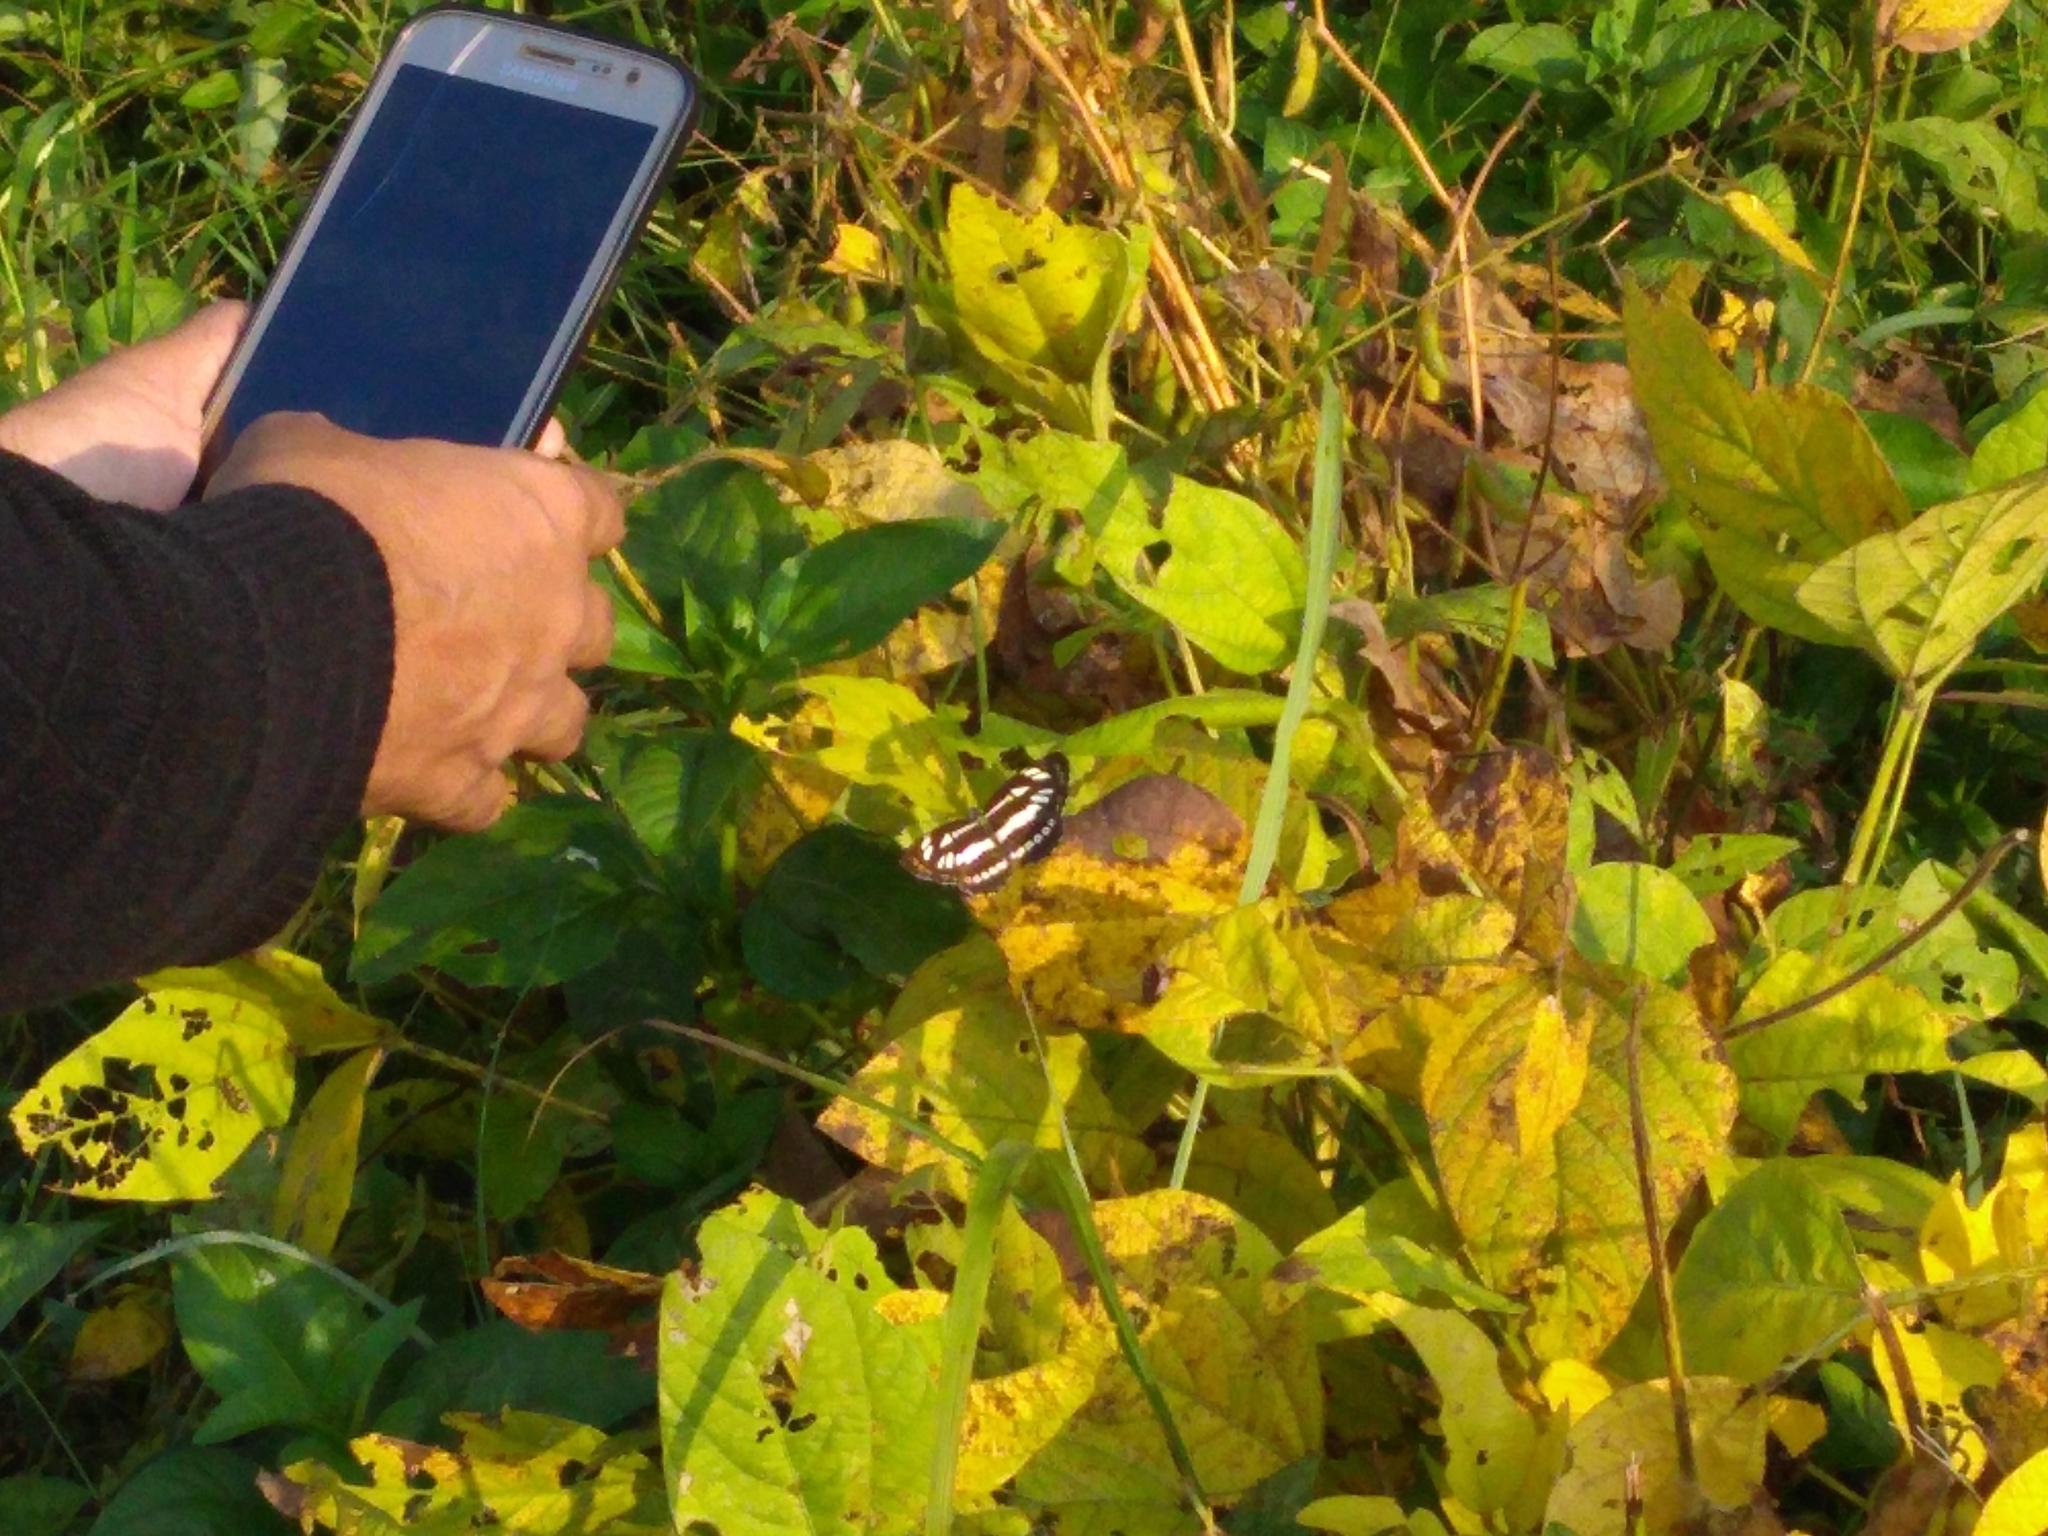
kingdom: Animalia
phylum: Arthropoda
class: Insecta
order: Lepidoptera
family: Nymphalidae
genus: Neptis
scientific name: Neptis hylas
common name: Common sailer
